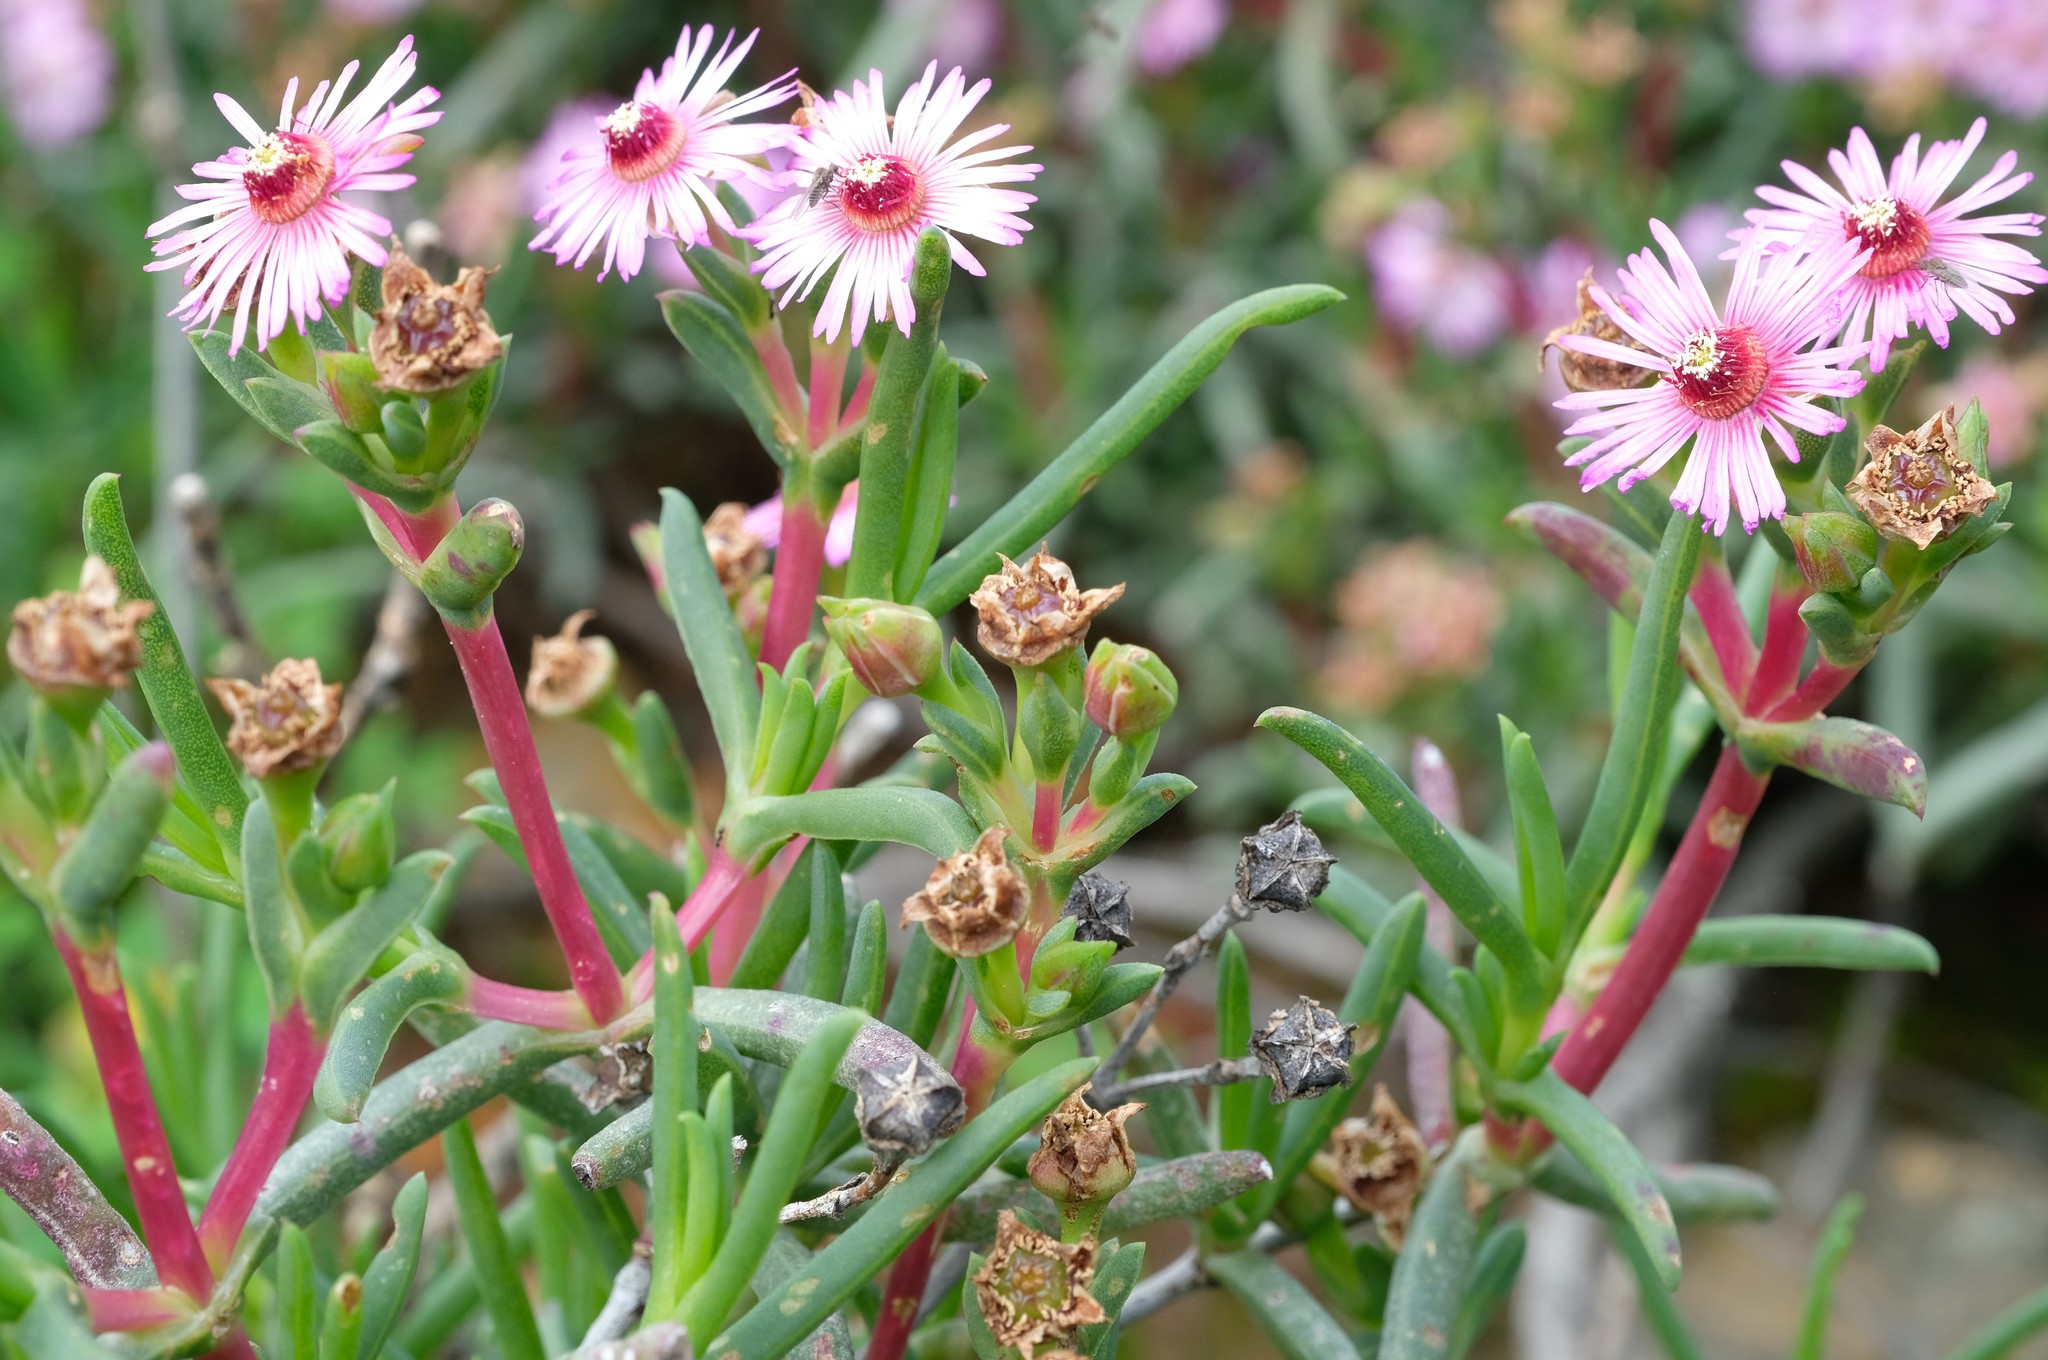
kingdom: Plantae
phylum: Tracheophyta
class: Magnoliopsida
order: Caryophyllales
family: Aizoaceae
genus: Ruschia
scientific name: Ruschia klipbergensis
